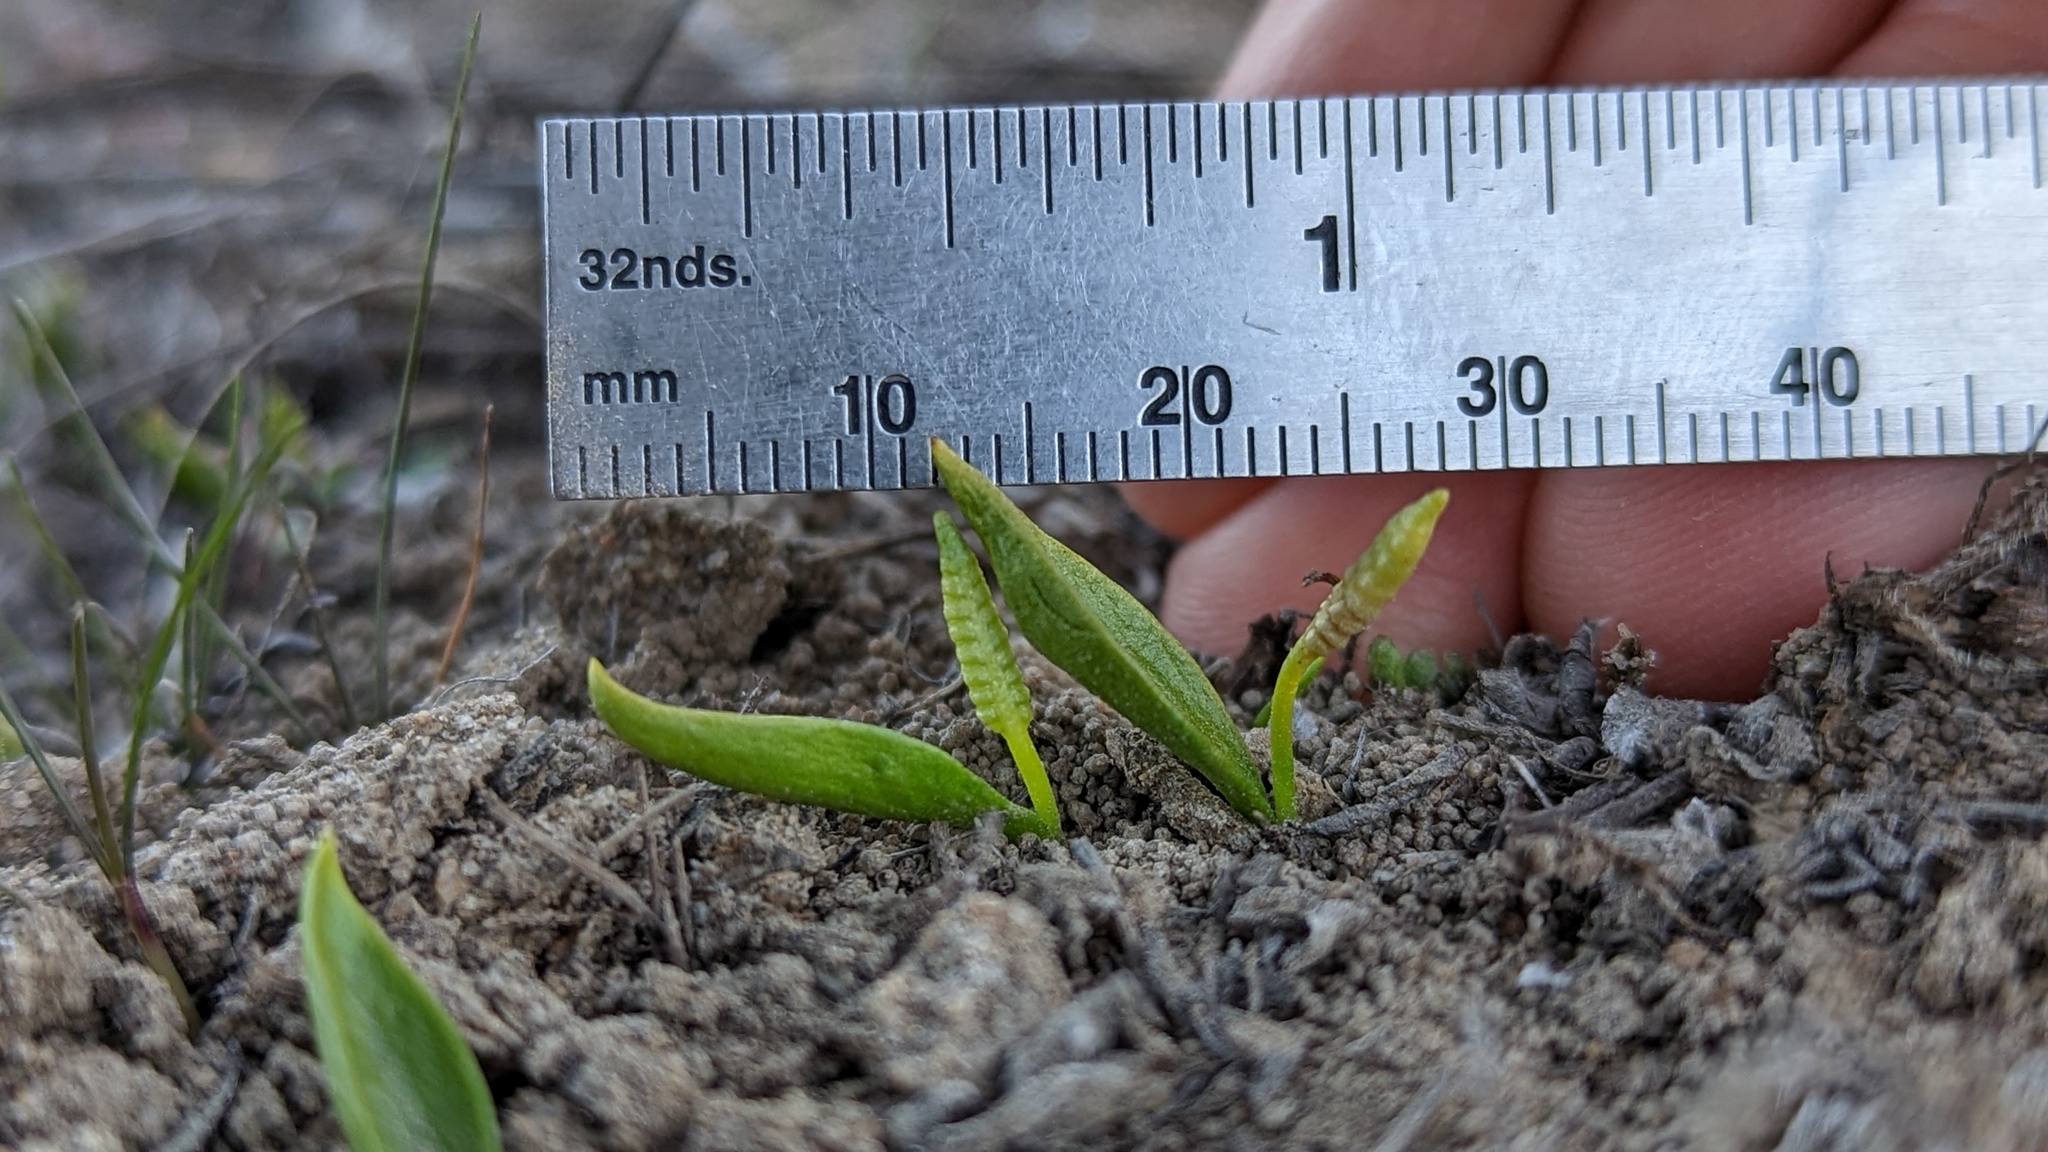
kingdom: Plantae
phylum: Tracheophyta
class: Polypodiopsida
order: Ophioglossales
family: Ophioglossaceae
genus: Ophioglossum
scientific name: Ophioglossum californicum
